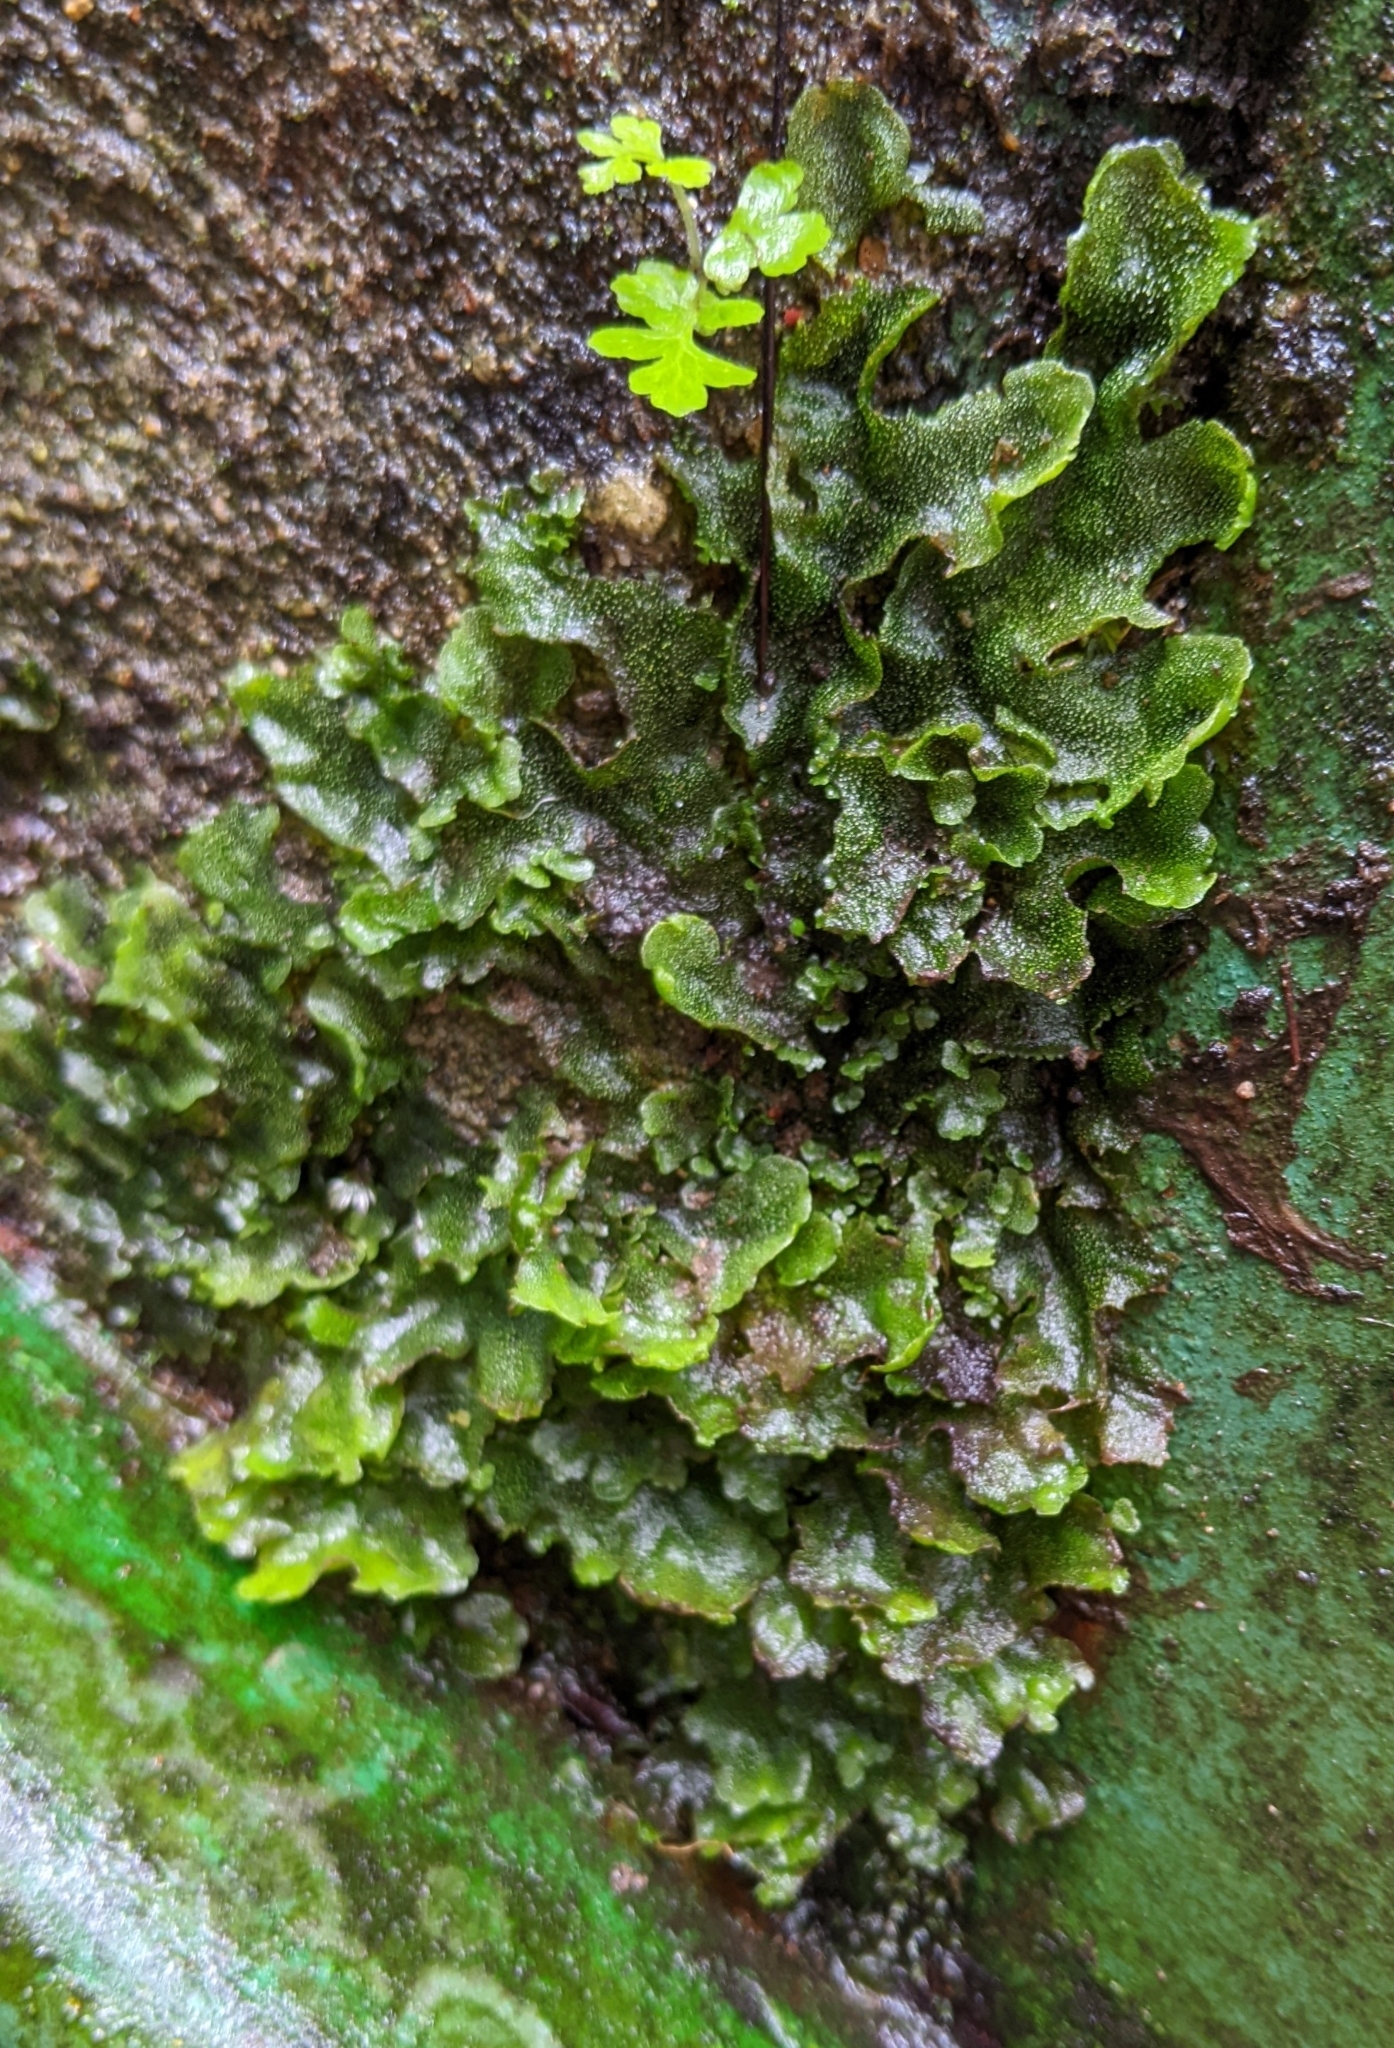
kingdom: Plantae
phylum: Marchantiophyta
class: Marchantiopsida
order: Marchantiales
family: Monocleaceae
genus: Monoclea
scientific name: Monoclea gottschei
